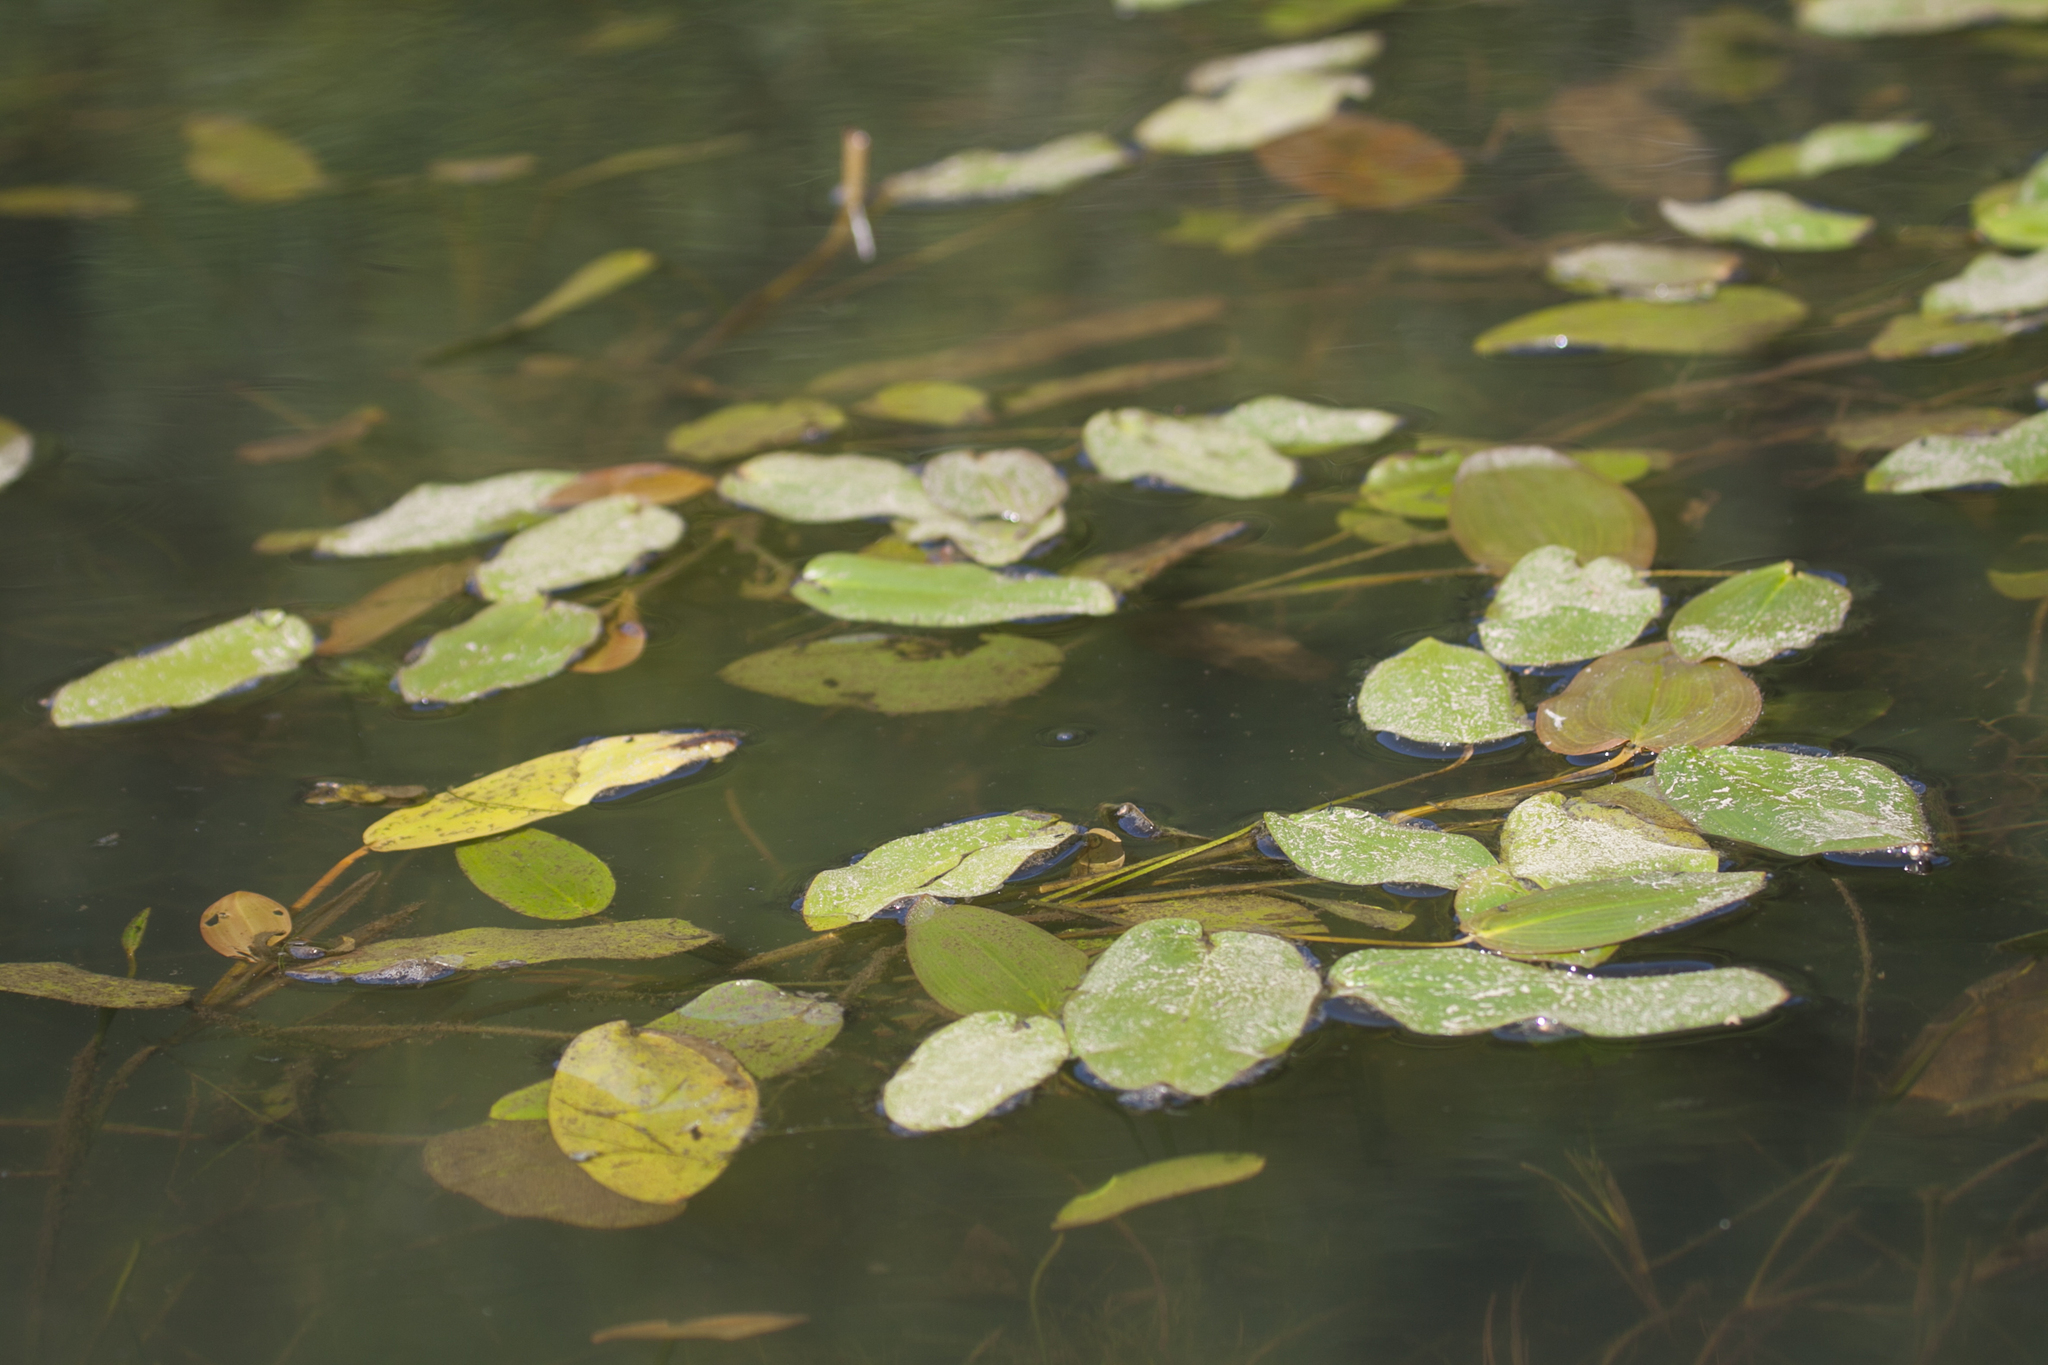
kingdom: Plantae
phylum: Tracheophyta
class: Liliopsida
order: Alismatales
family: Potamogetonaceae
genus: Potamogeton
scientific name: Potamogeton natans
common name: Broad-leaved pondweed
